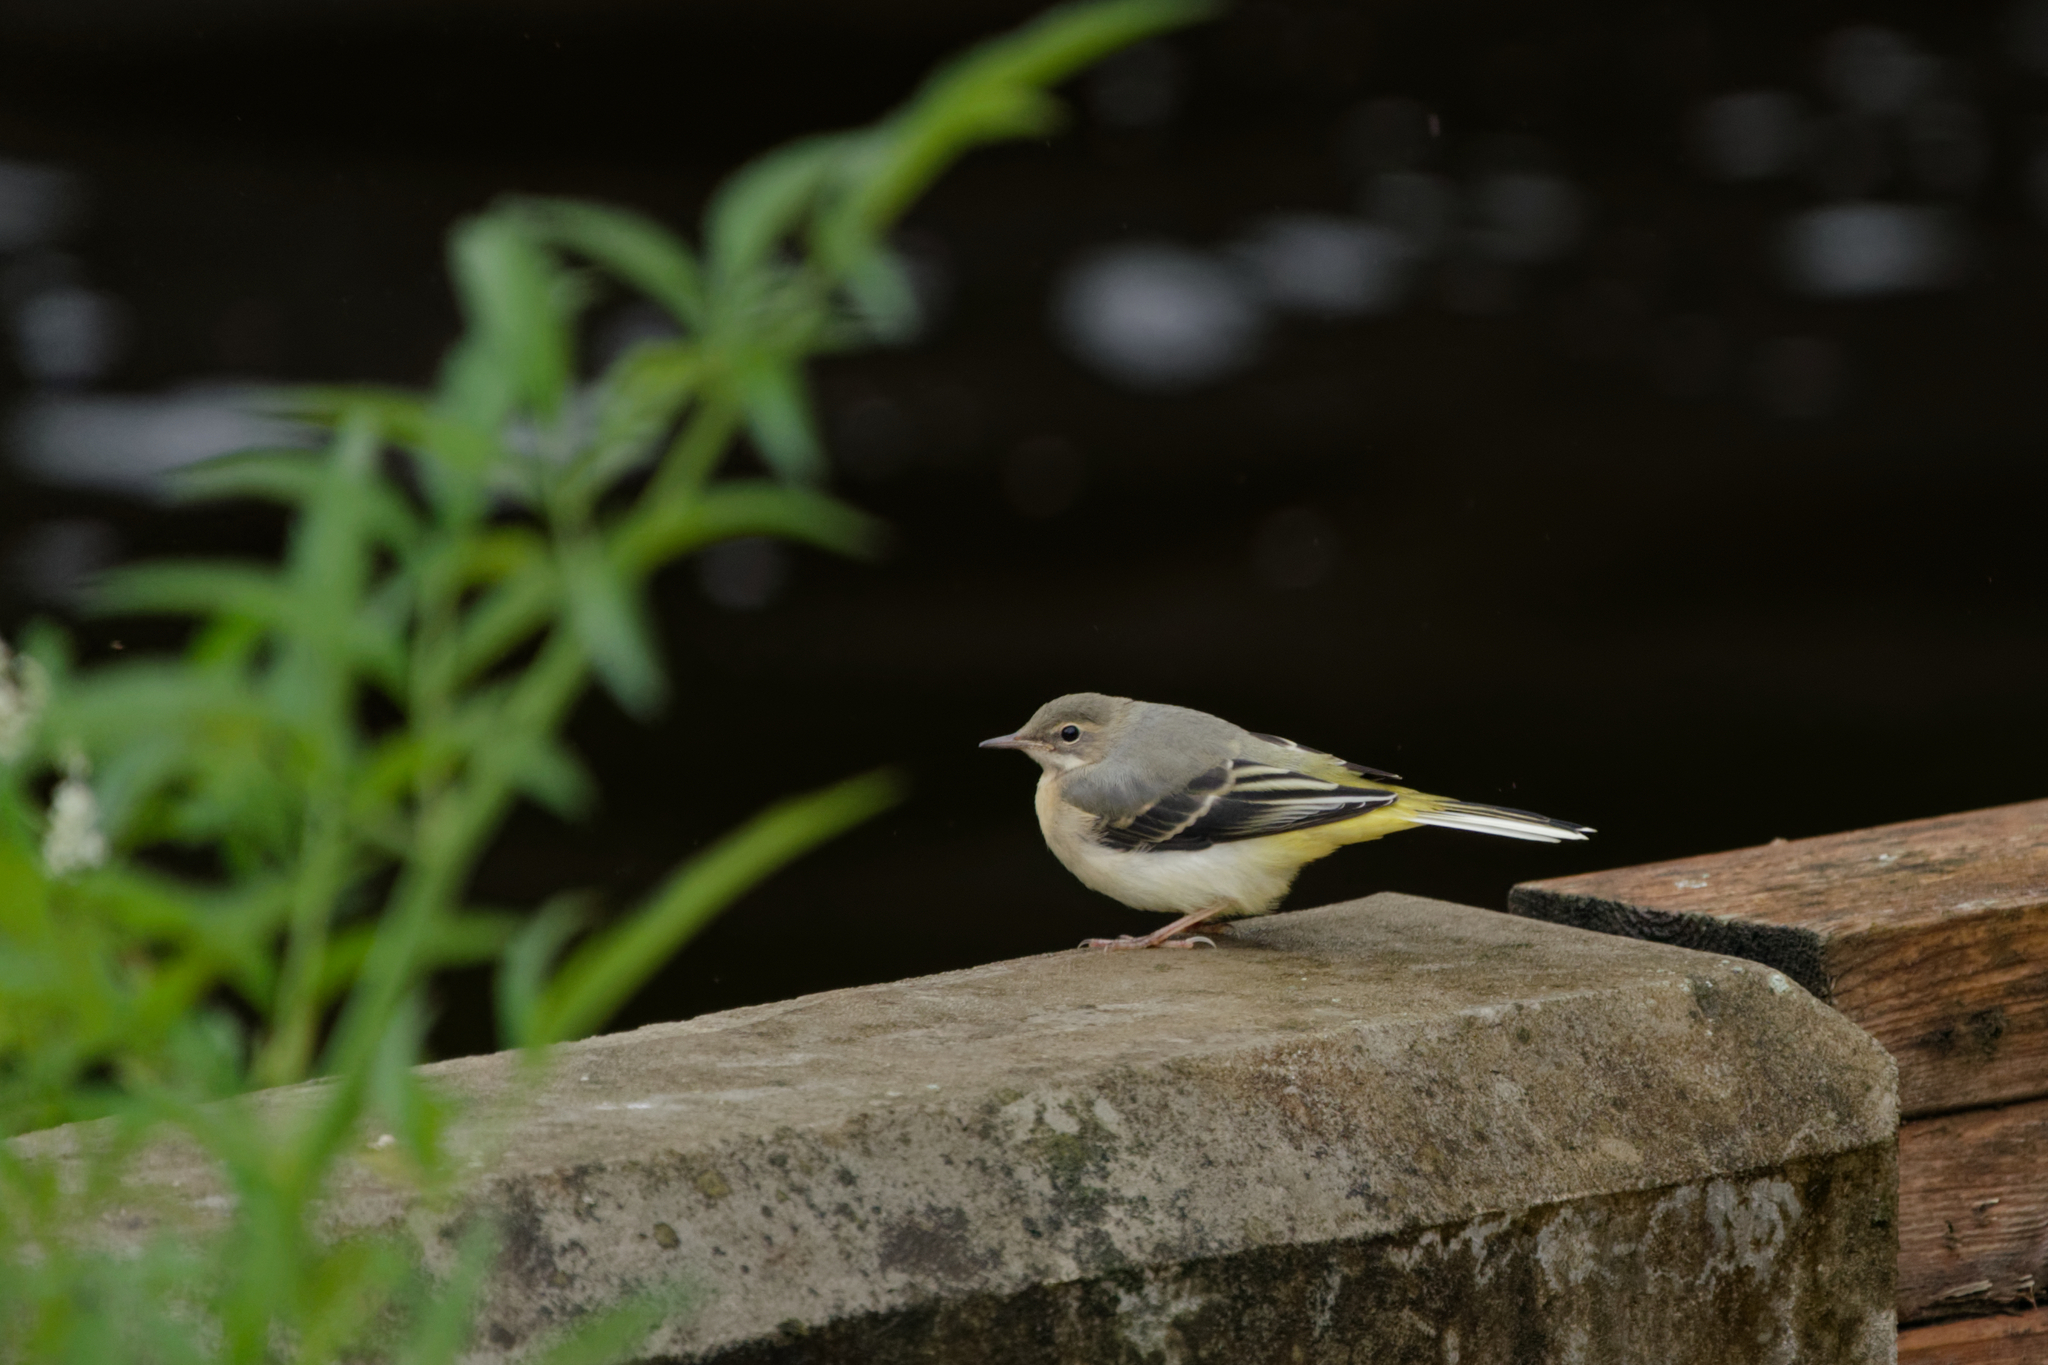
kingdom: Animalia
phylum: Chordata
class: Aves
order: Passeriformes
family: Motacillidae
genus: Motacilla
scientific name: Motacilla cinerea
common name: Grey wagtail
